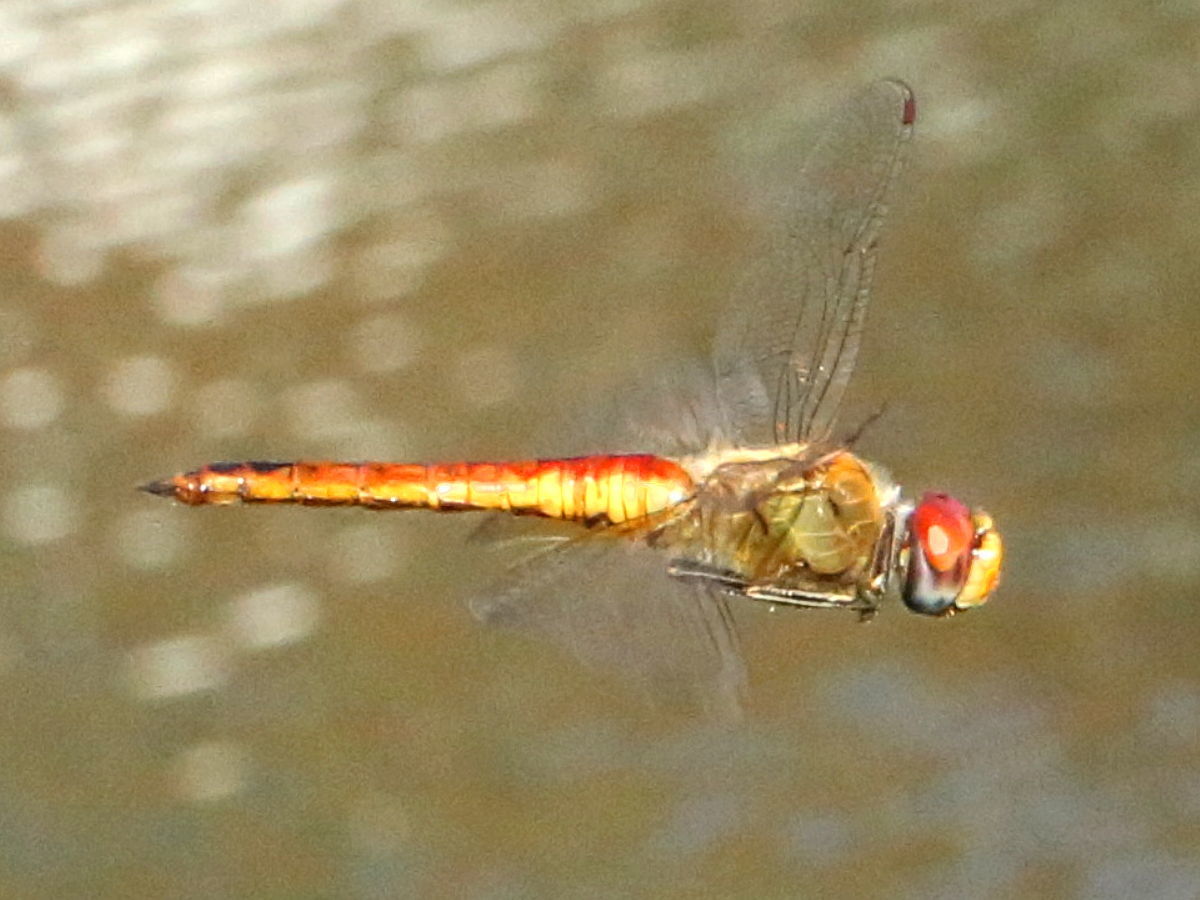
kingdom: Animalia
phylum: Arthropoda
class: Insecta
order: Odonata
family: Libellulidae
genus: Pantala
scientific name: Pantala flavescens
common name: Wandering glider
